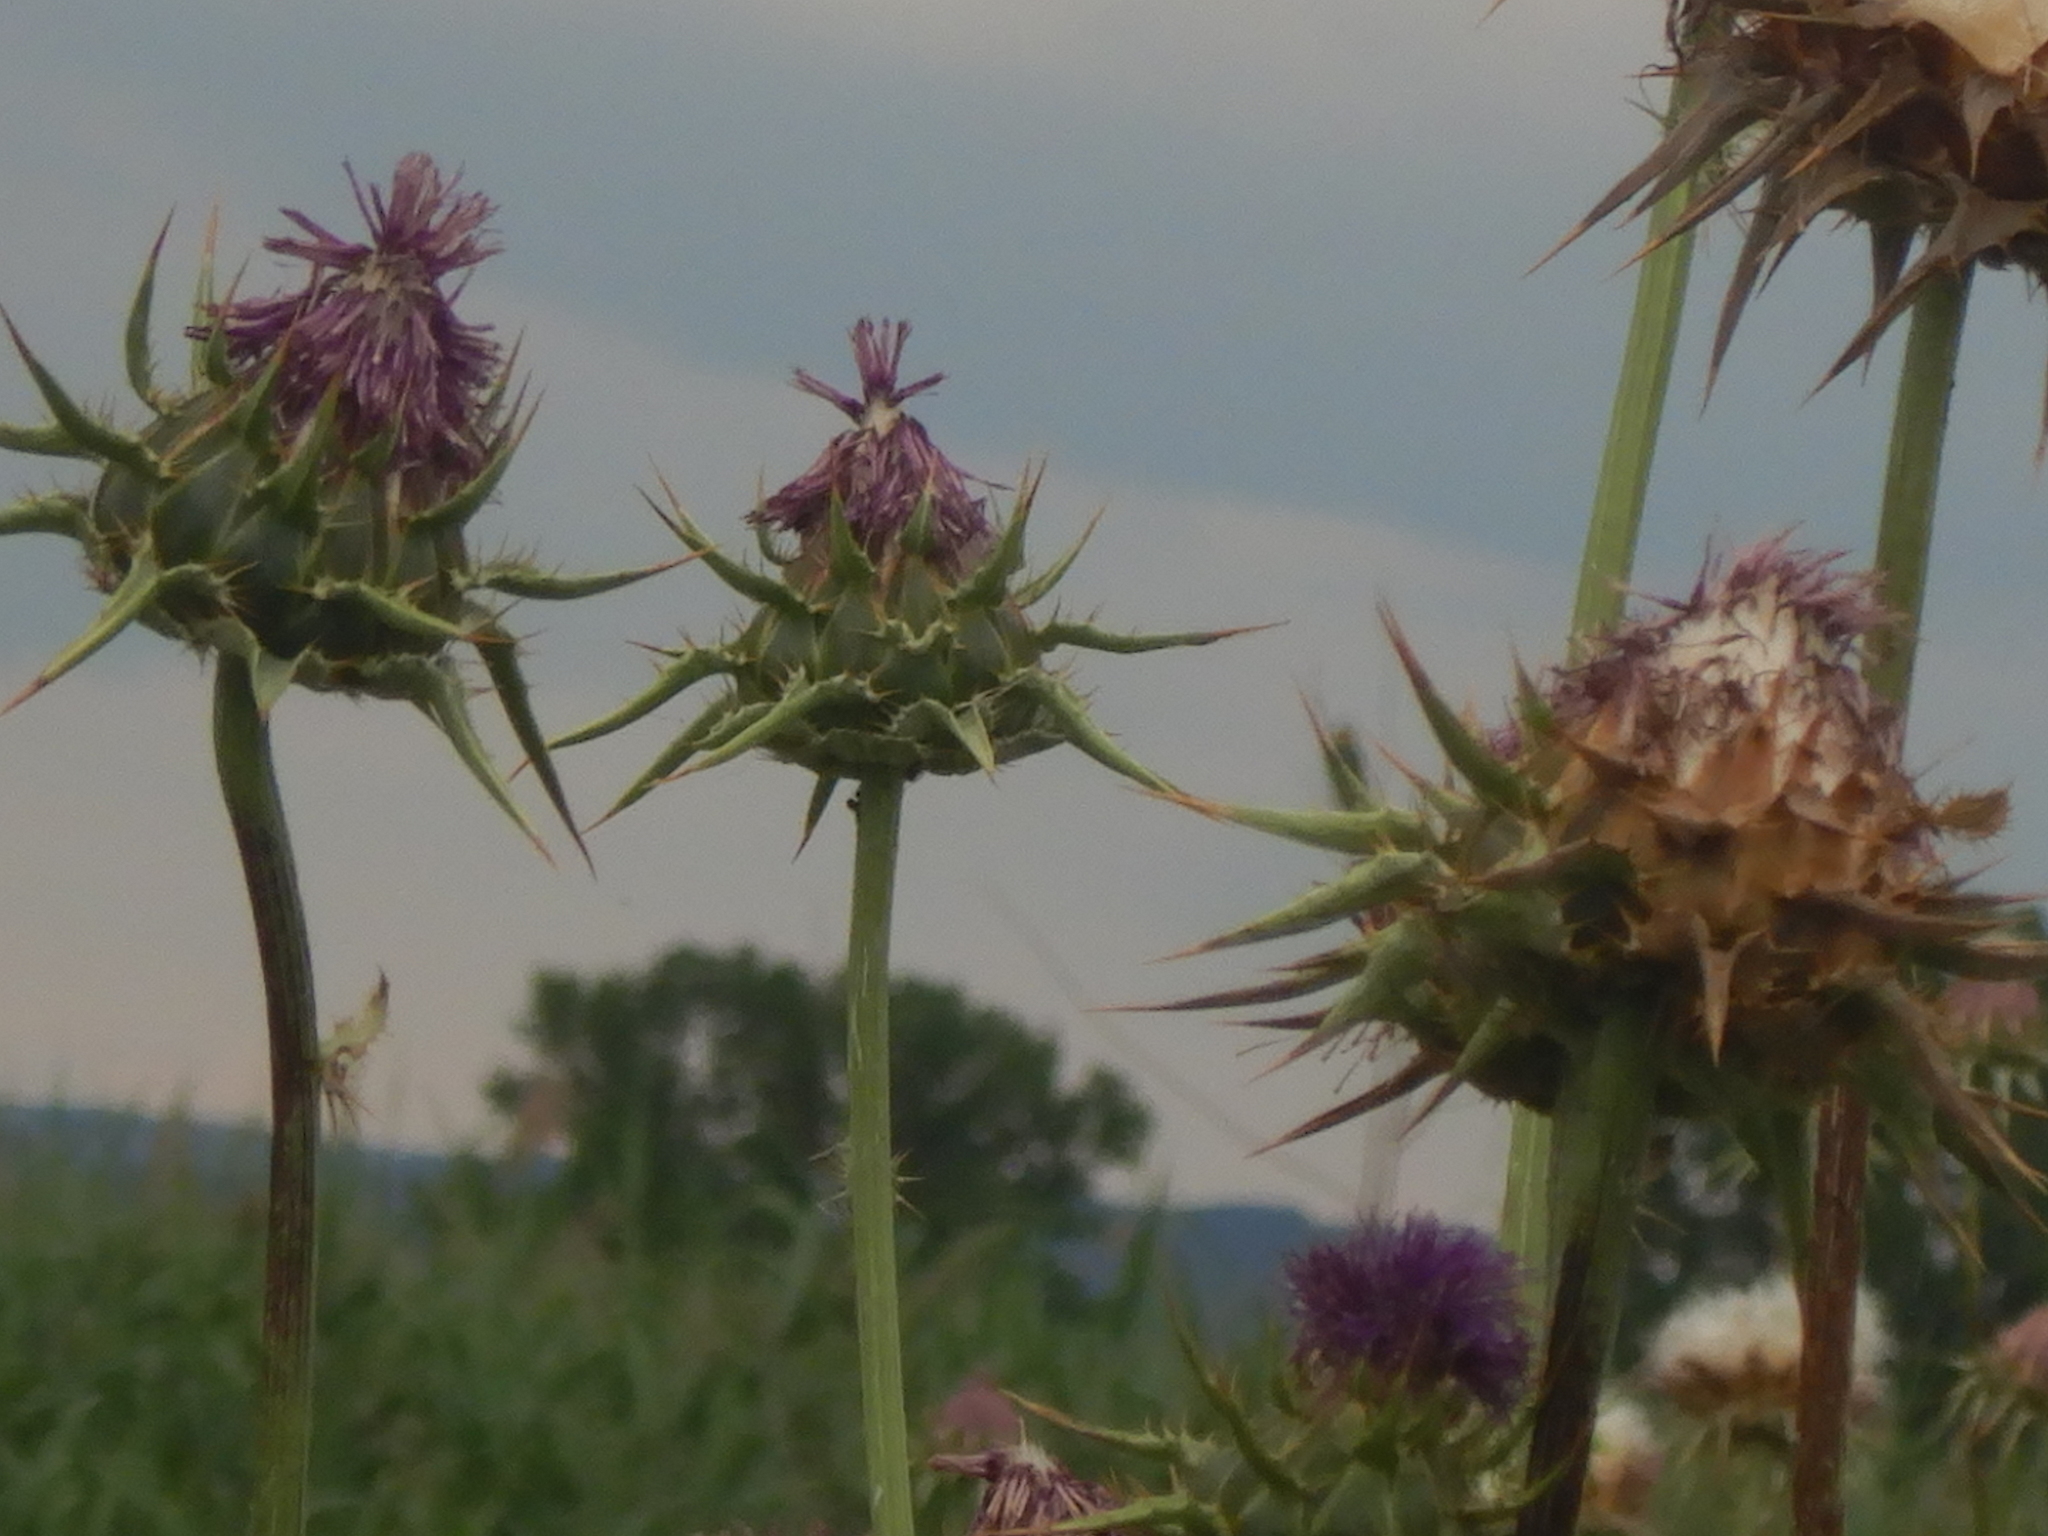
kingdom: Plantae
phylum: Tracheophyta
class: Magnoliopsida
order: Asterales
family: Asteraceae
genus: Silybum
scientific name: Silybum marianum
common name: Milk thistle
